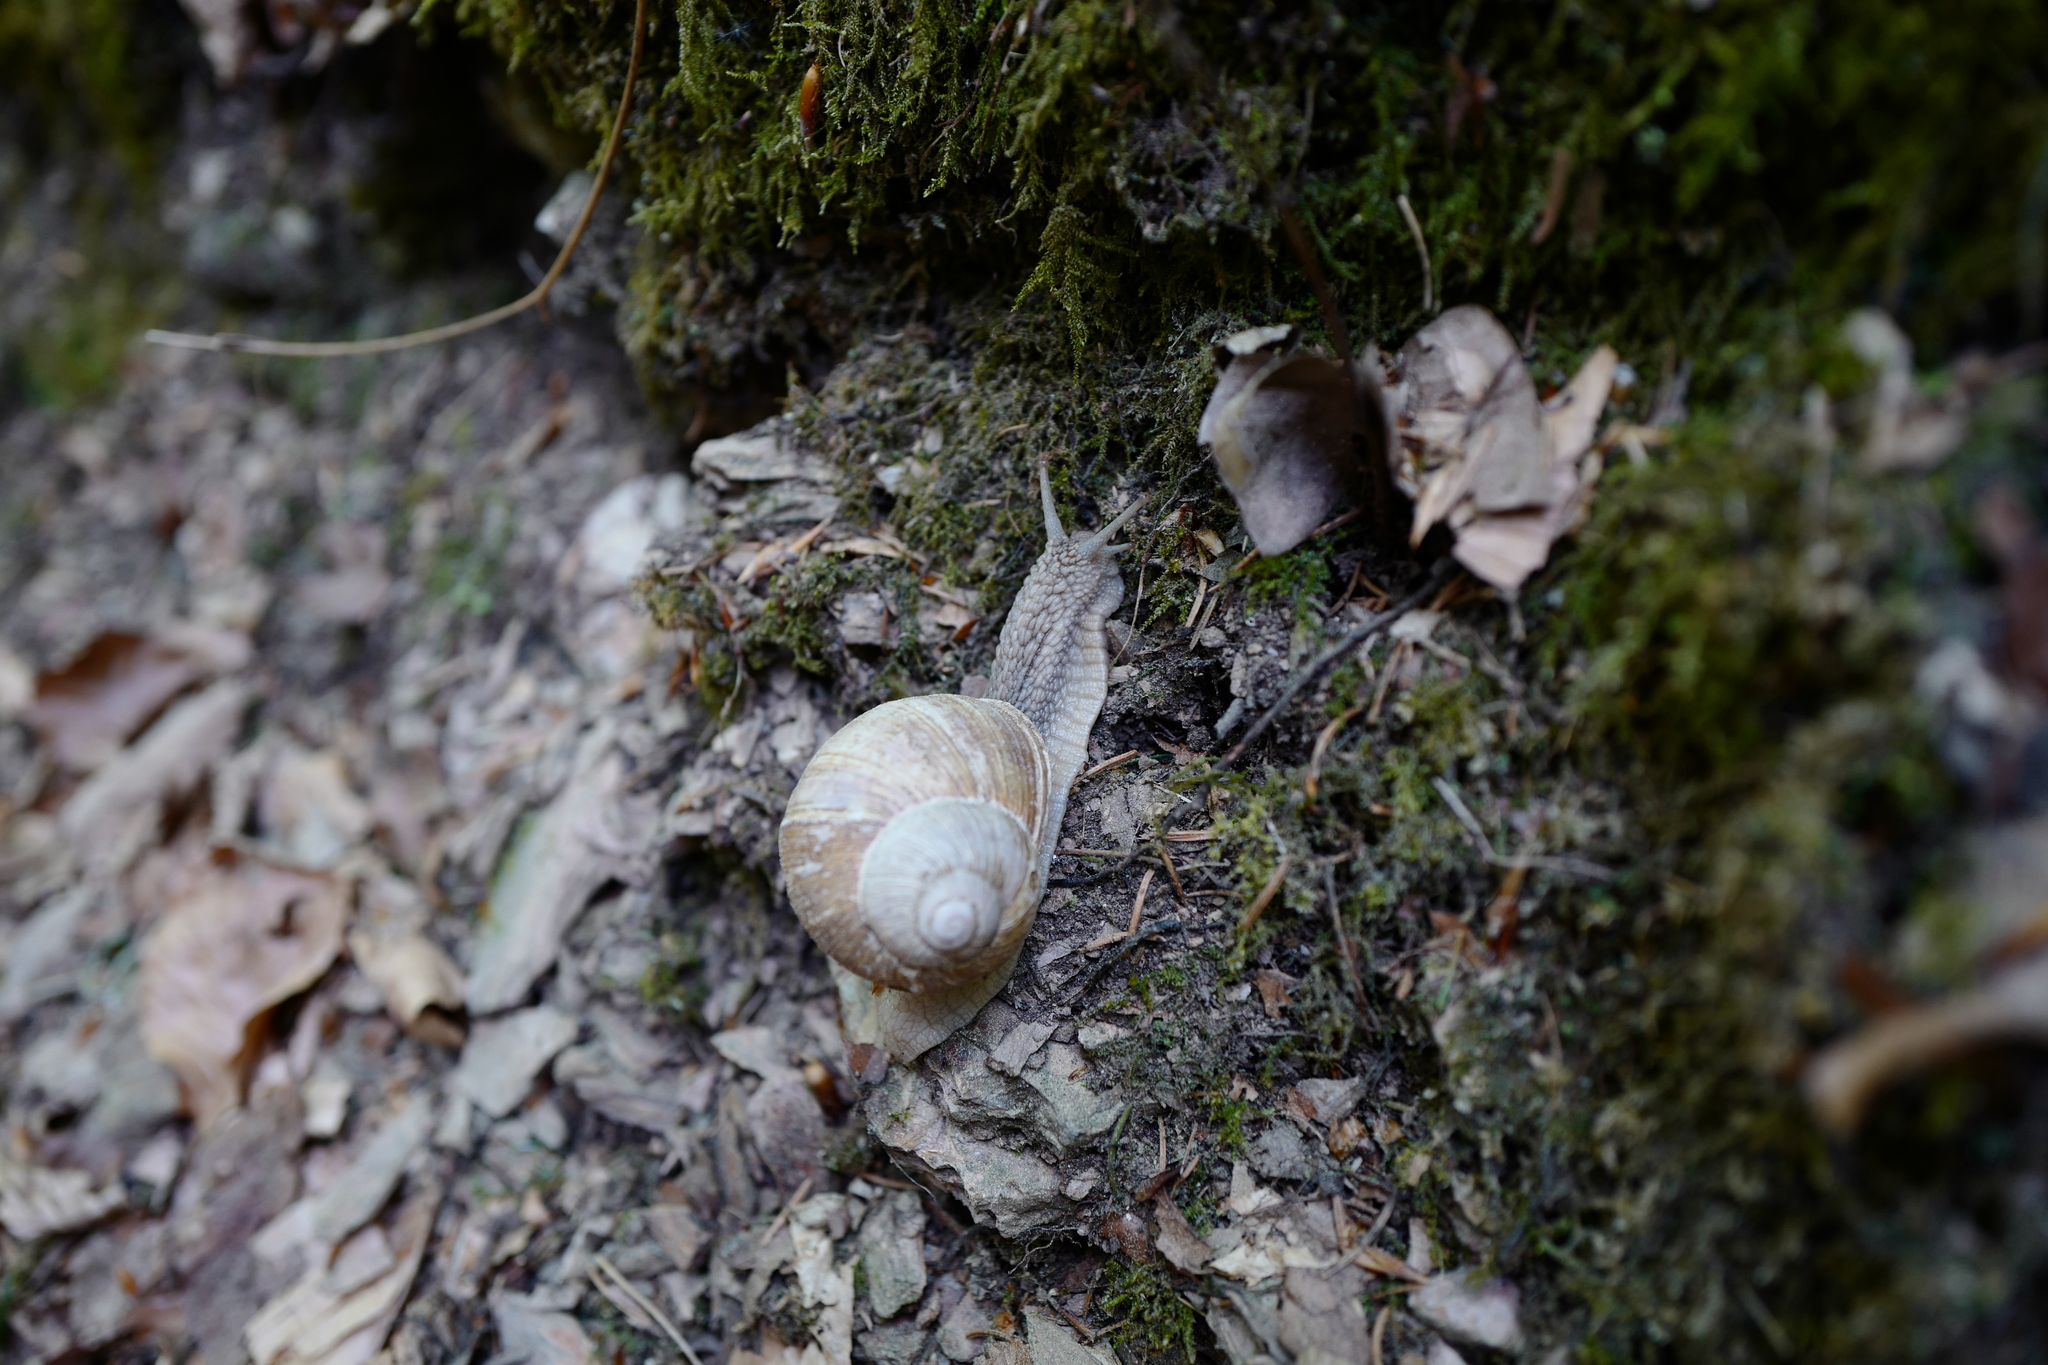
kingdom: Animalia
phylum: Mollusca
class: Gastropoda
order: Stylommatophora
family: Helicidae
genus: Helix
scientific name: Helix pomatia
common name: Roman snail
